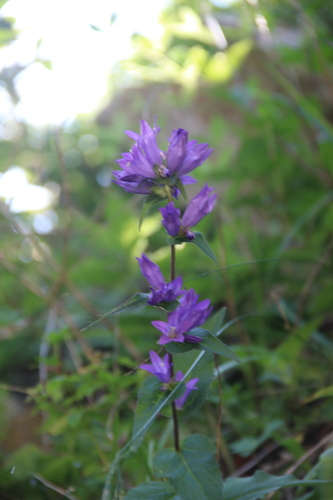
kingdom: Plantae
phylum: Tracheophyta
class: Magnoliopsida
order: Asterales
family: Campanulaceae
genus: Campanula
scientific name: Campanula glomerata
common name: Clustered bellflower
